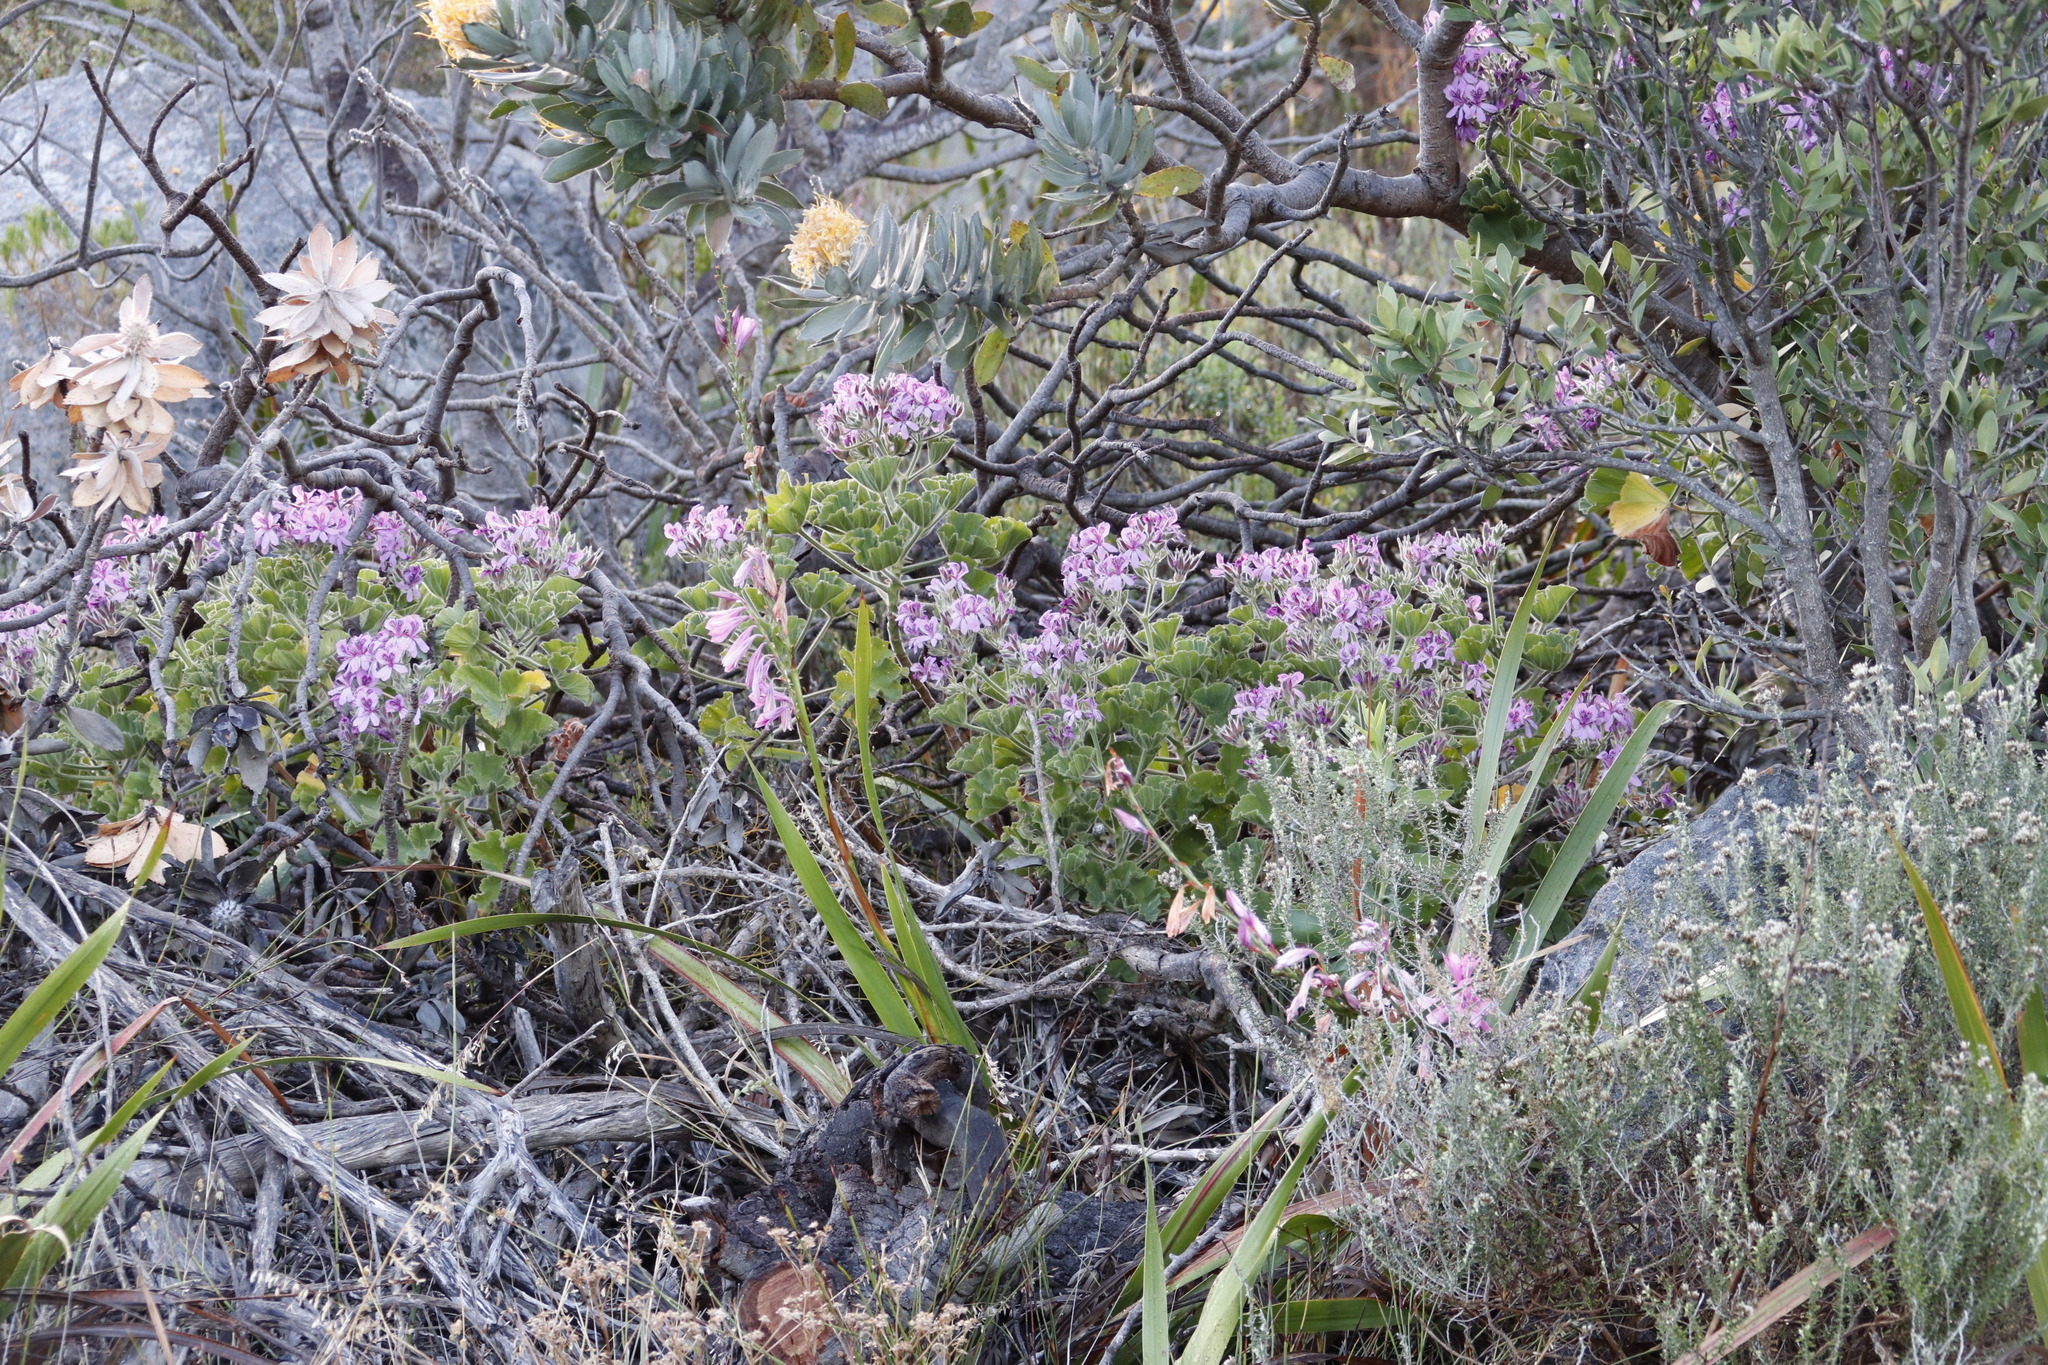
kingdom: Plantae
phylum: Tracheophyta
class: Magnoliopsida
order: Geraniales
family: Geraniaceae
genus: Pelargonium
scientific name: Pelargonium cucullatum
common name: Tree pelargonium
